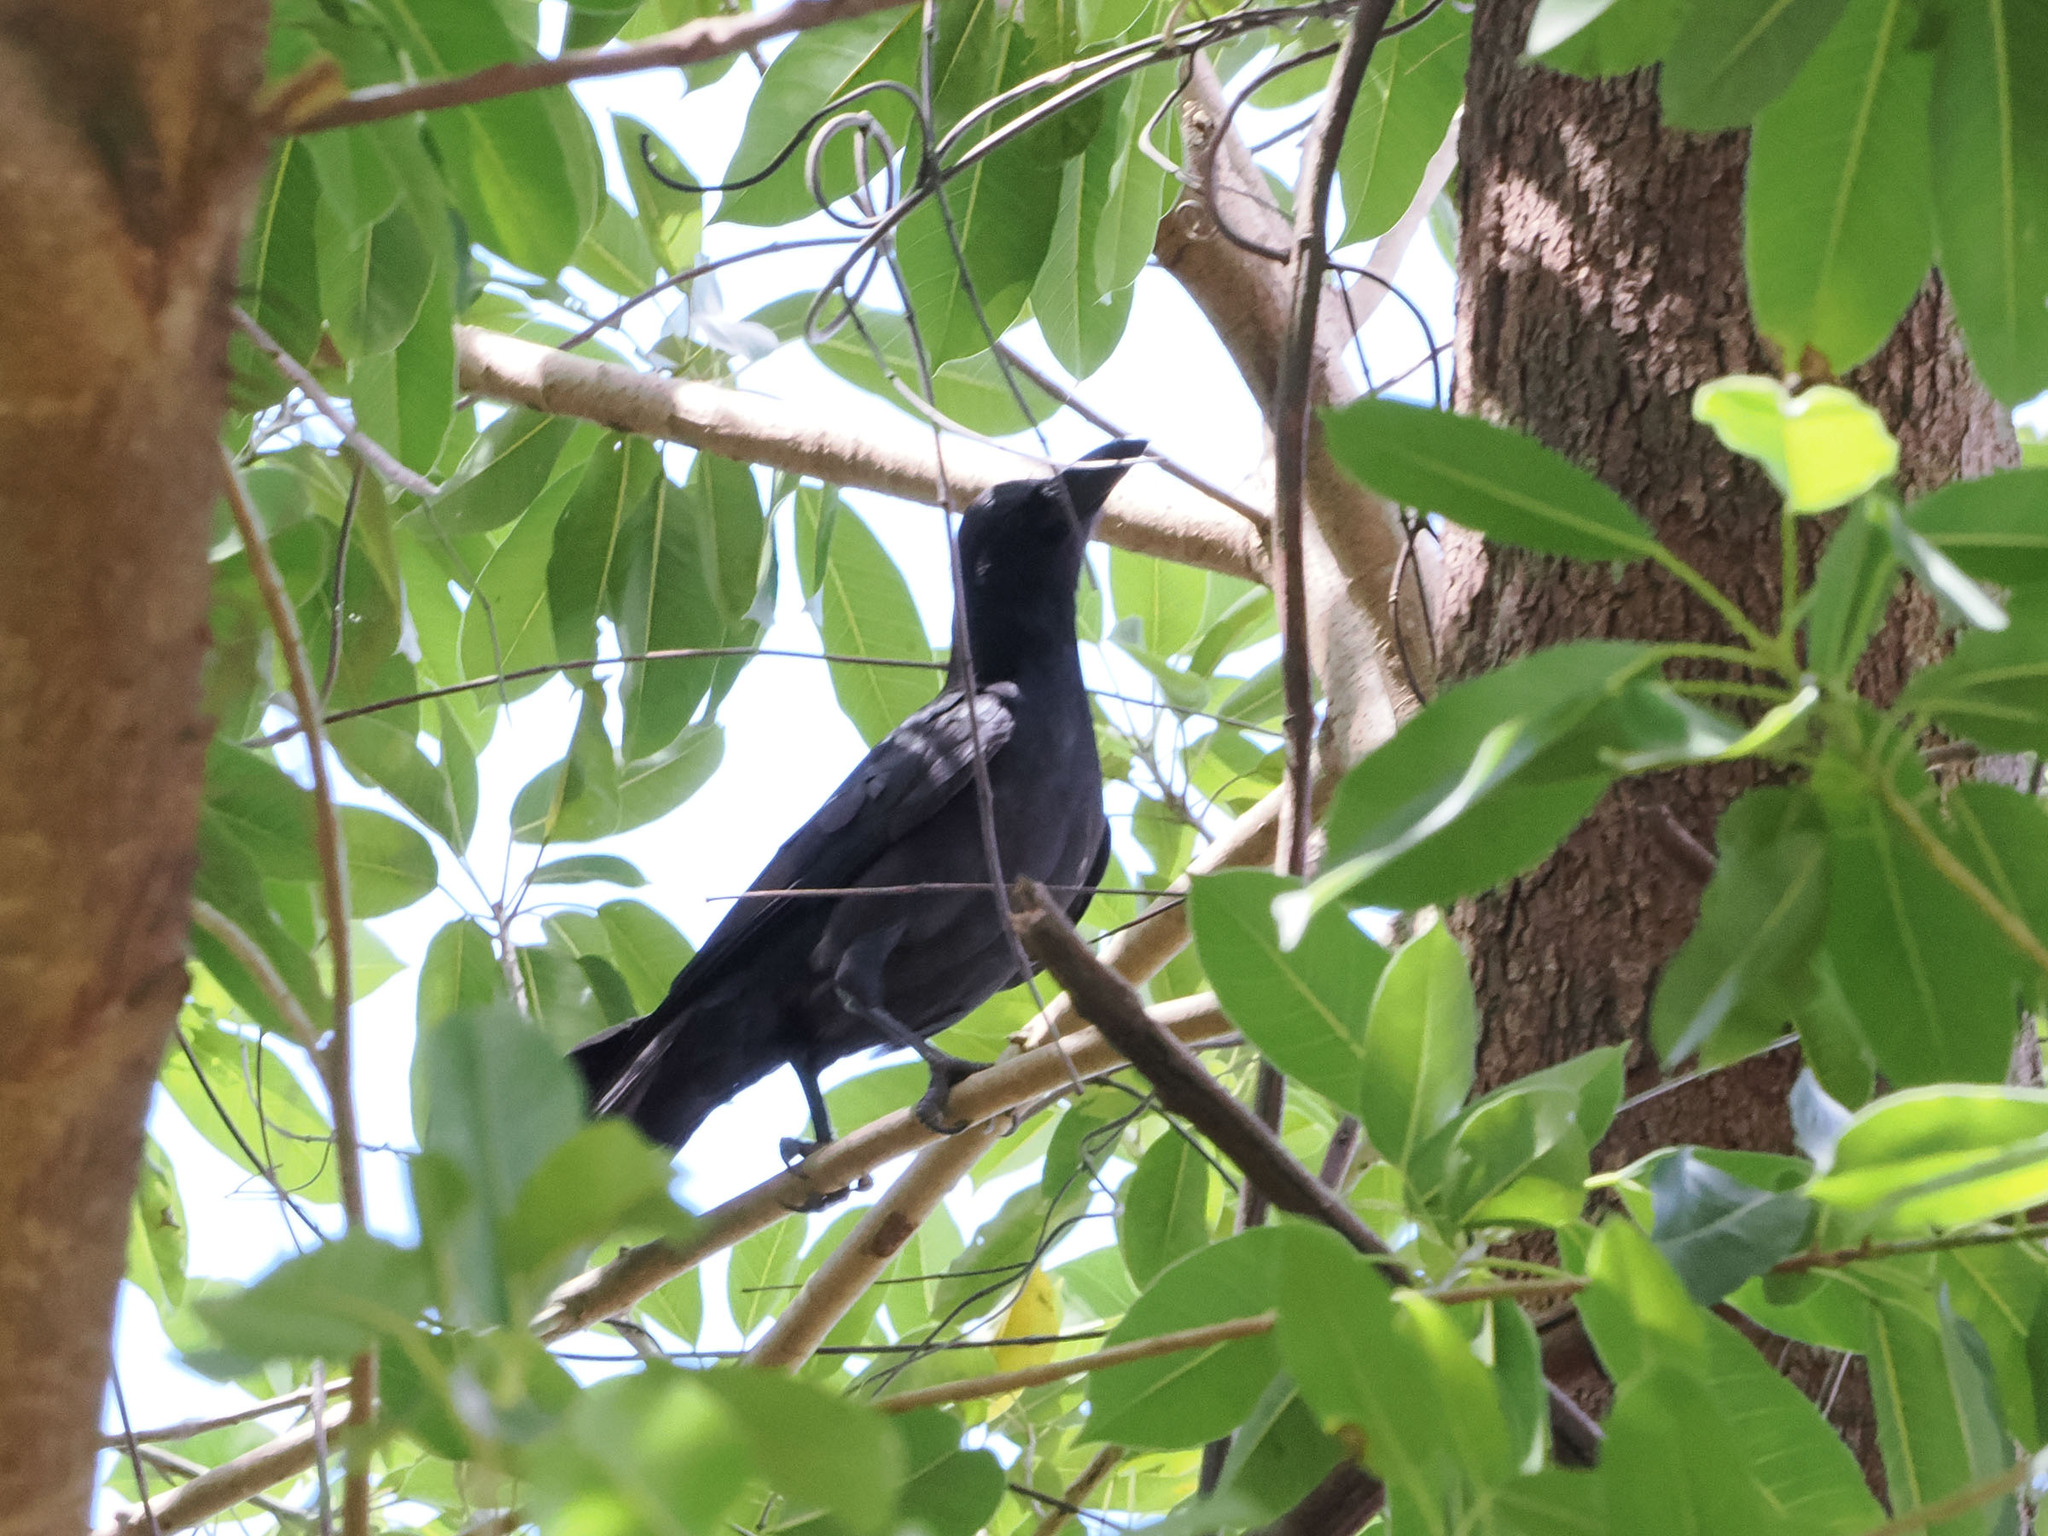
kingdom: Animalia
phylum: Chordata
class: Aves
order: Passeriformes
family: Corvidae
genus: Corvus
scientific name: Corvus macrorhynchos
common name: Large-billed crow
